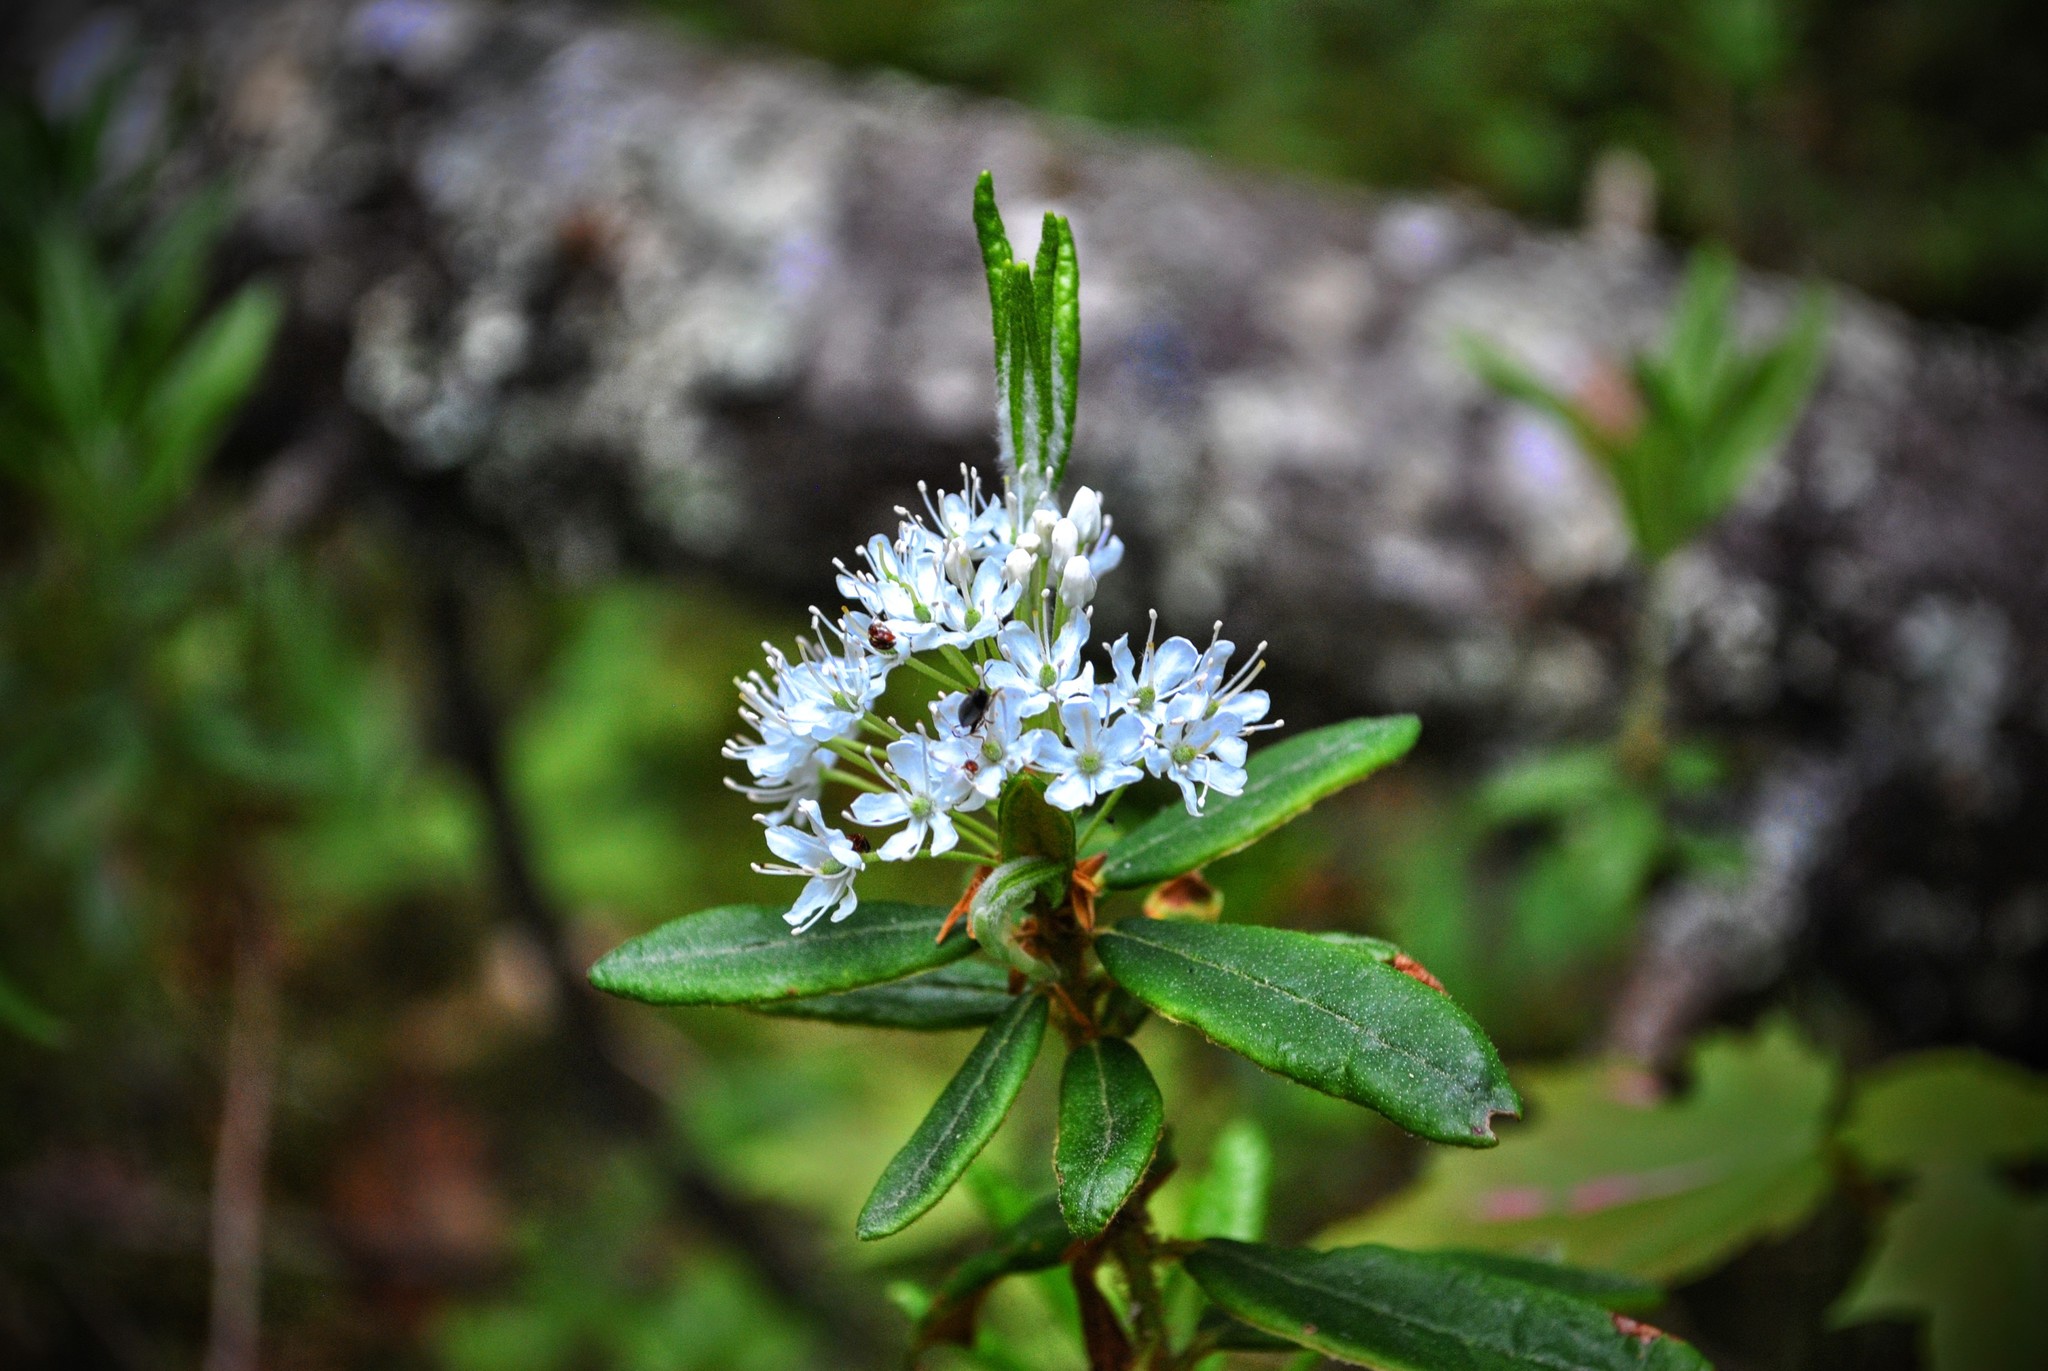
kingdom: Plantae
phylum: Tracheophyta
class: Magnoliopsida
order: Ericales
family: Ericaceae
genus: Rhododendron
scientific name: Rhododendron groenlandicum
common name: Bog labrador tea
